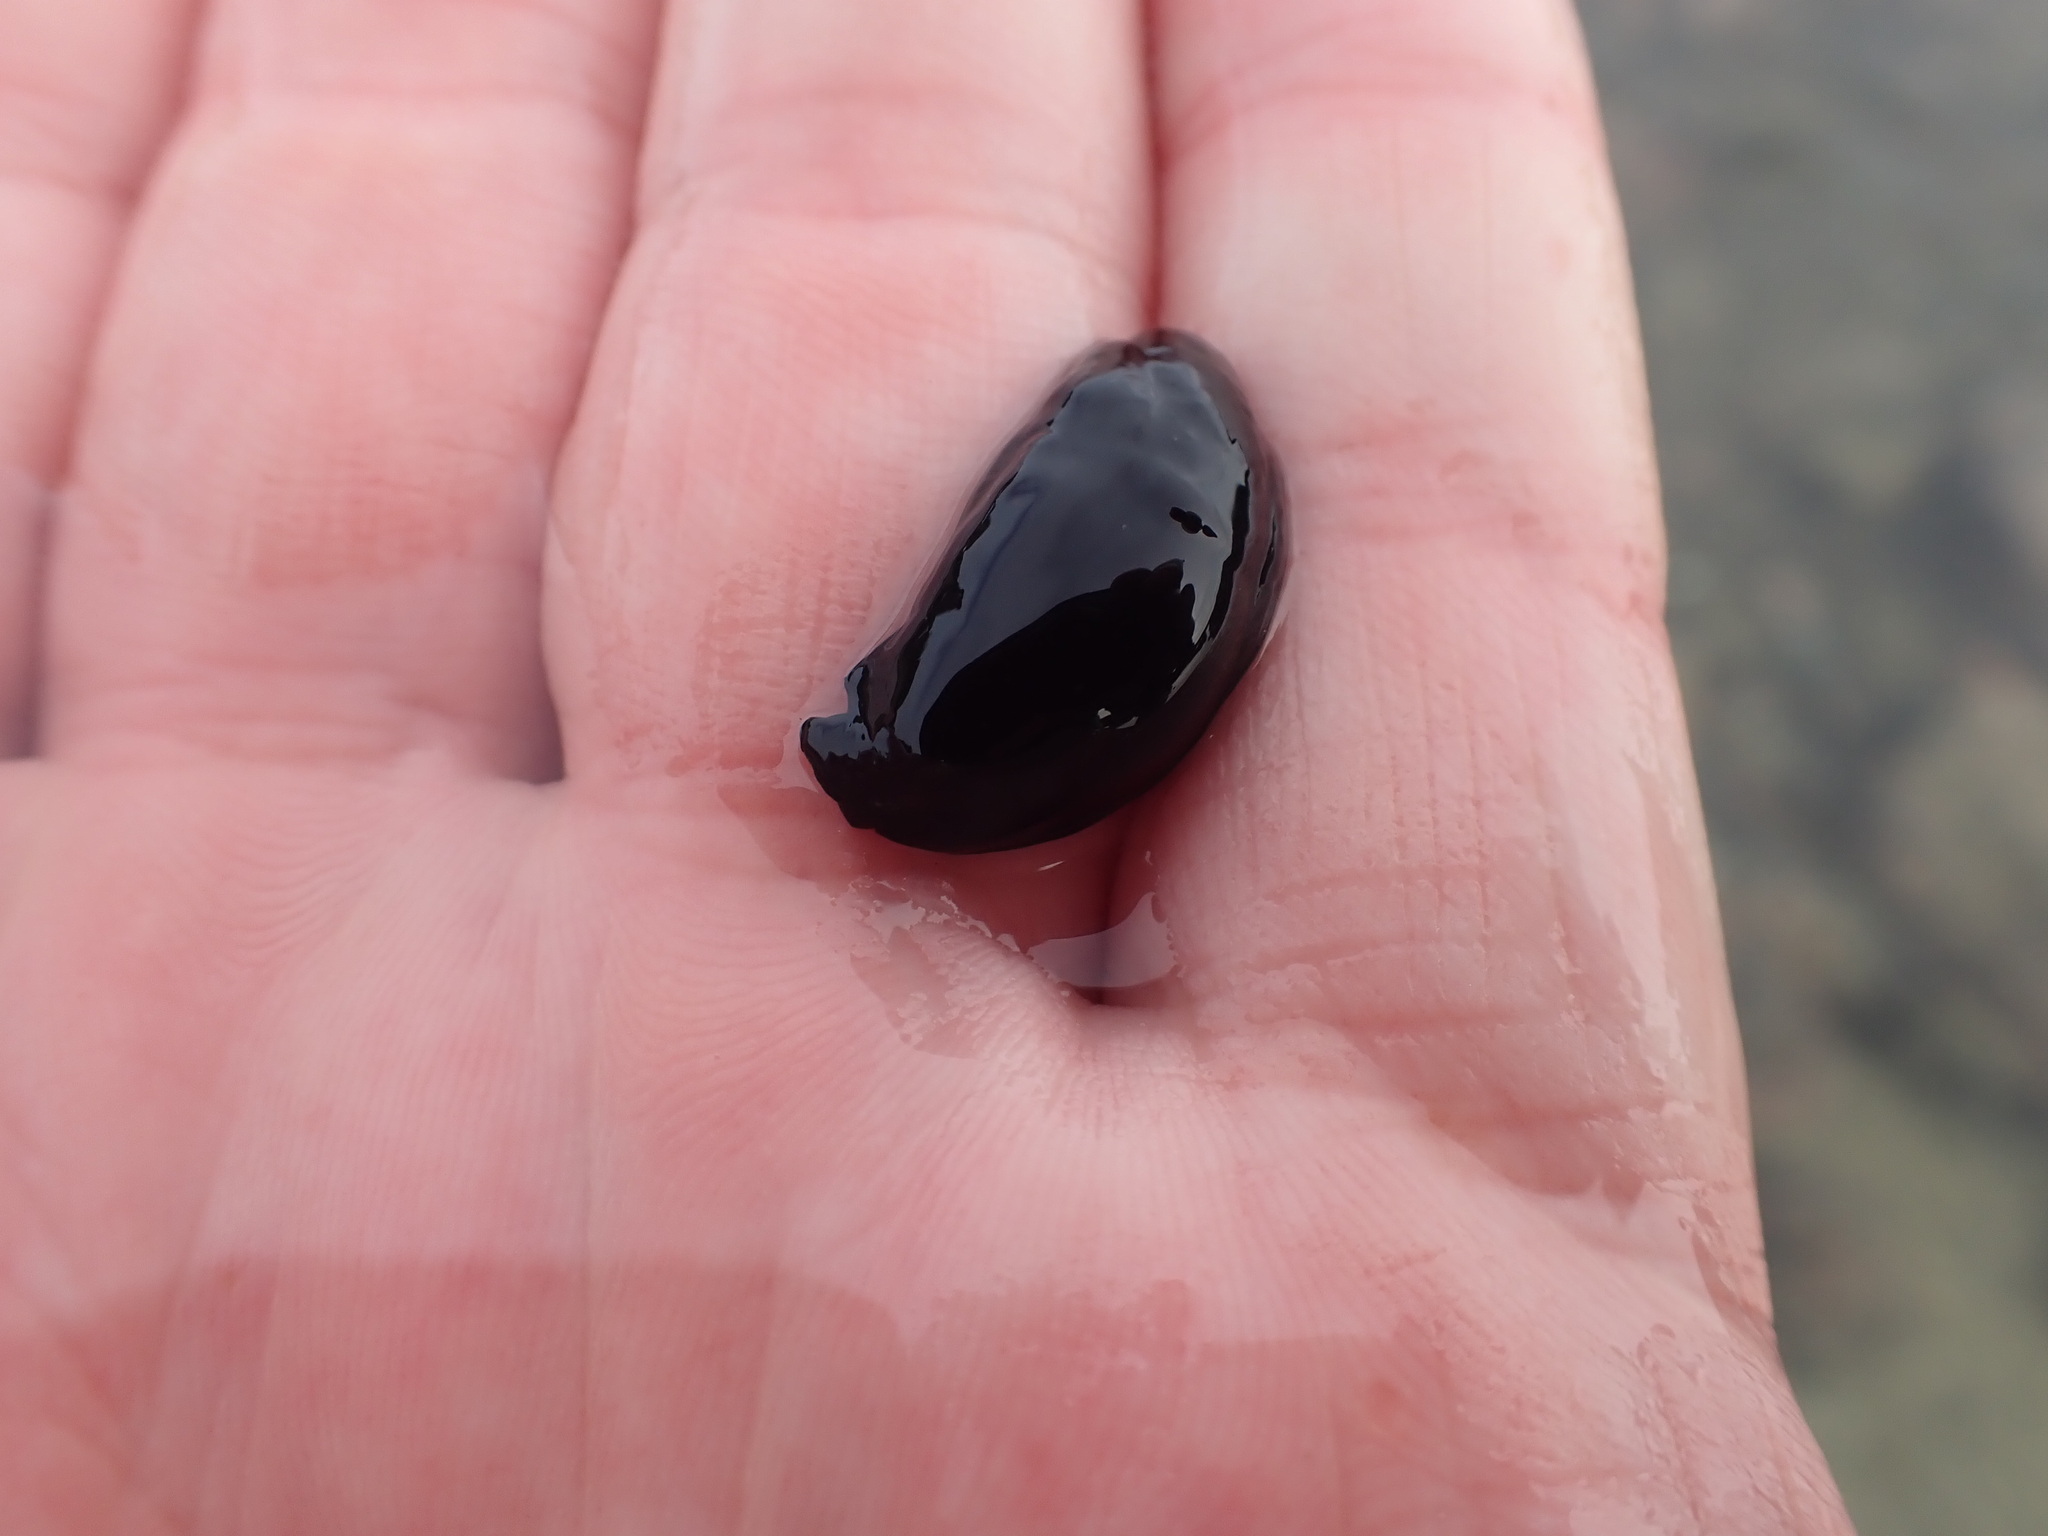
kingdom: Animalia
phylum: Mollusca
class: Gastropoda
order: Cephalaspidea
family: Aglajidae
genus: Melanochlamys
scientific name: Melanochlamys cylindrica
